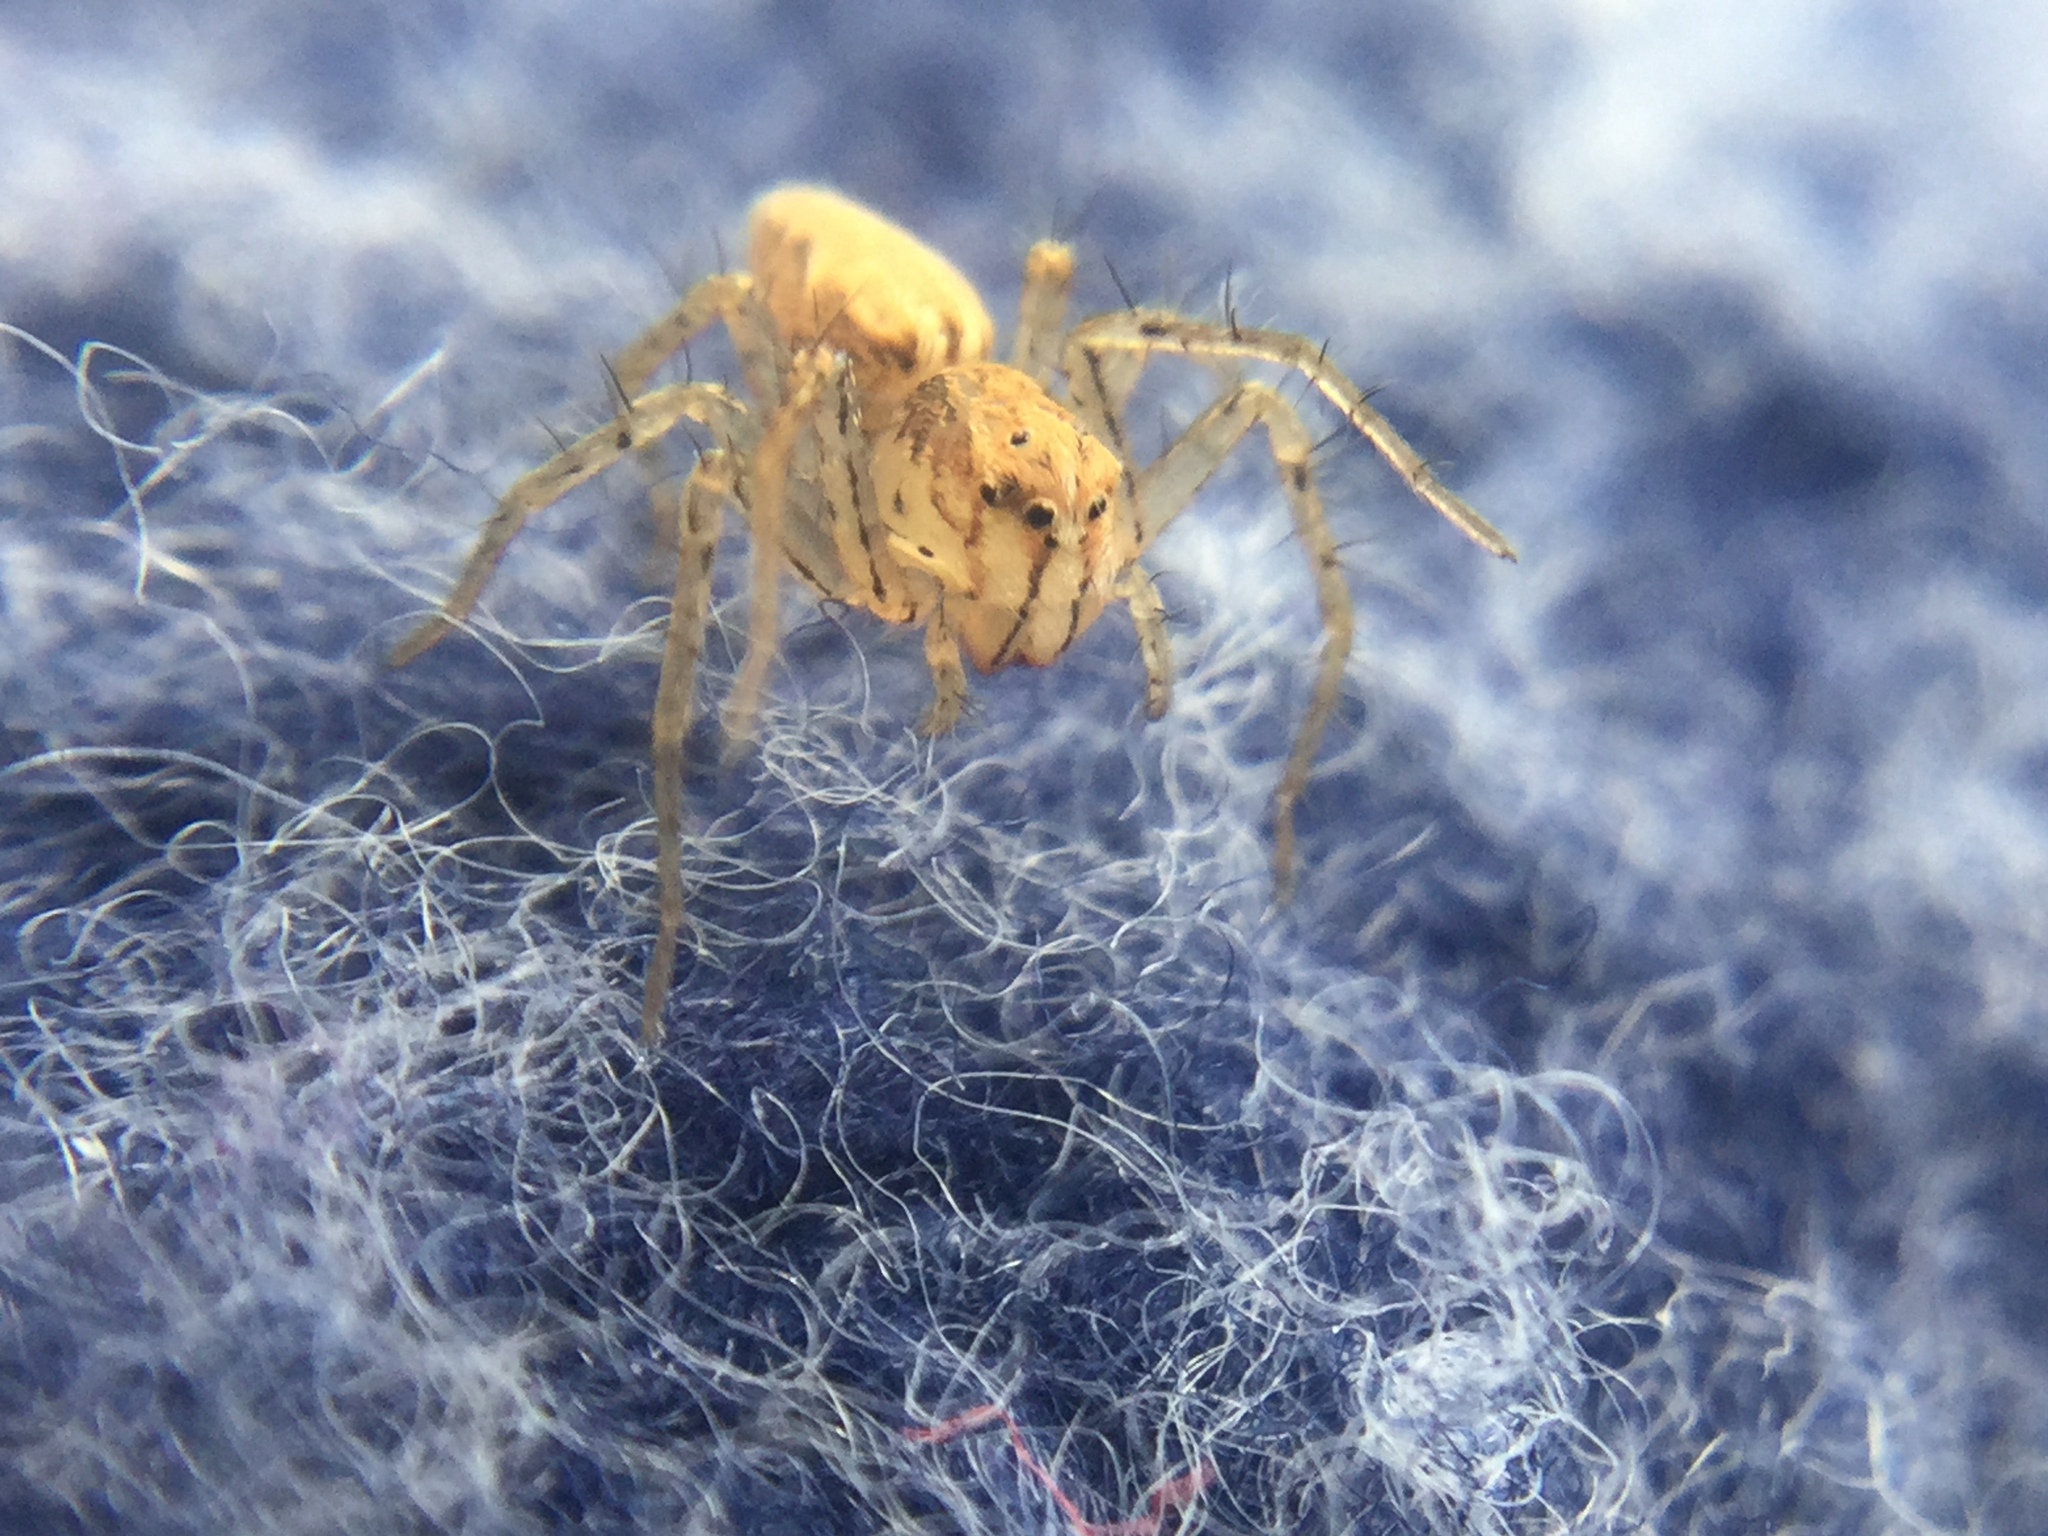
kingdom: Animalia
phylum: Arthropoda
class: Arachnida
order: Araneae
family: Oxyopidae
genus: Oxyopes
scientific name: Oxyopes aglossus
